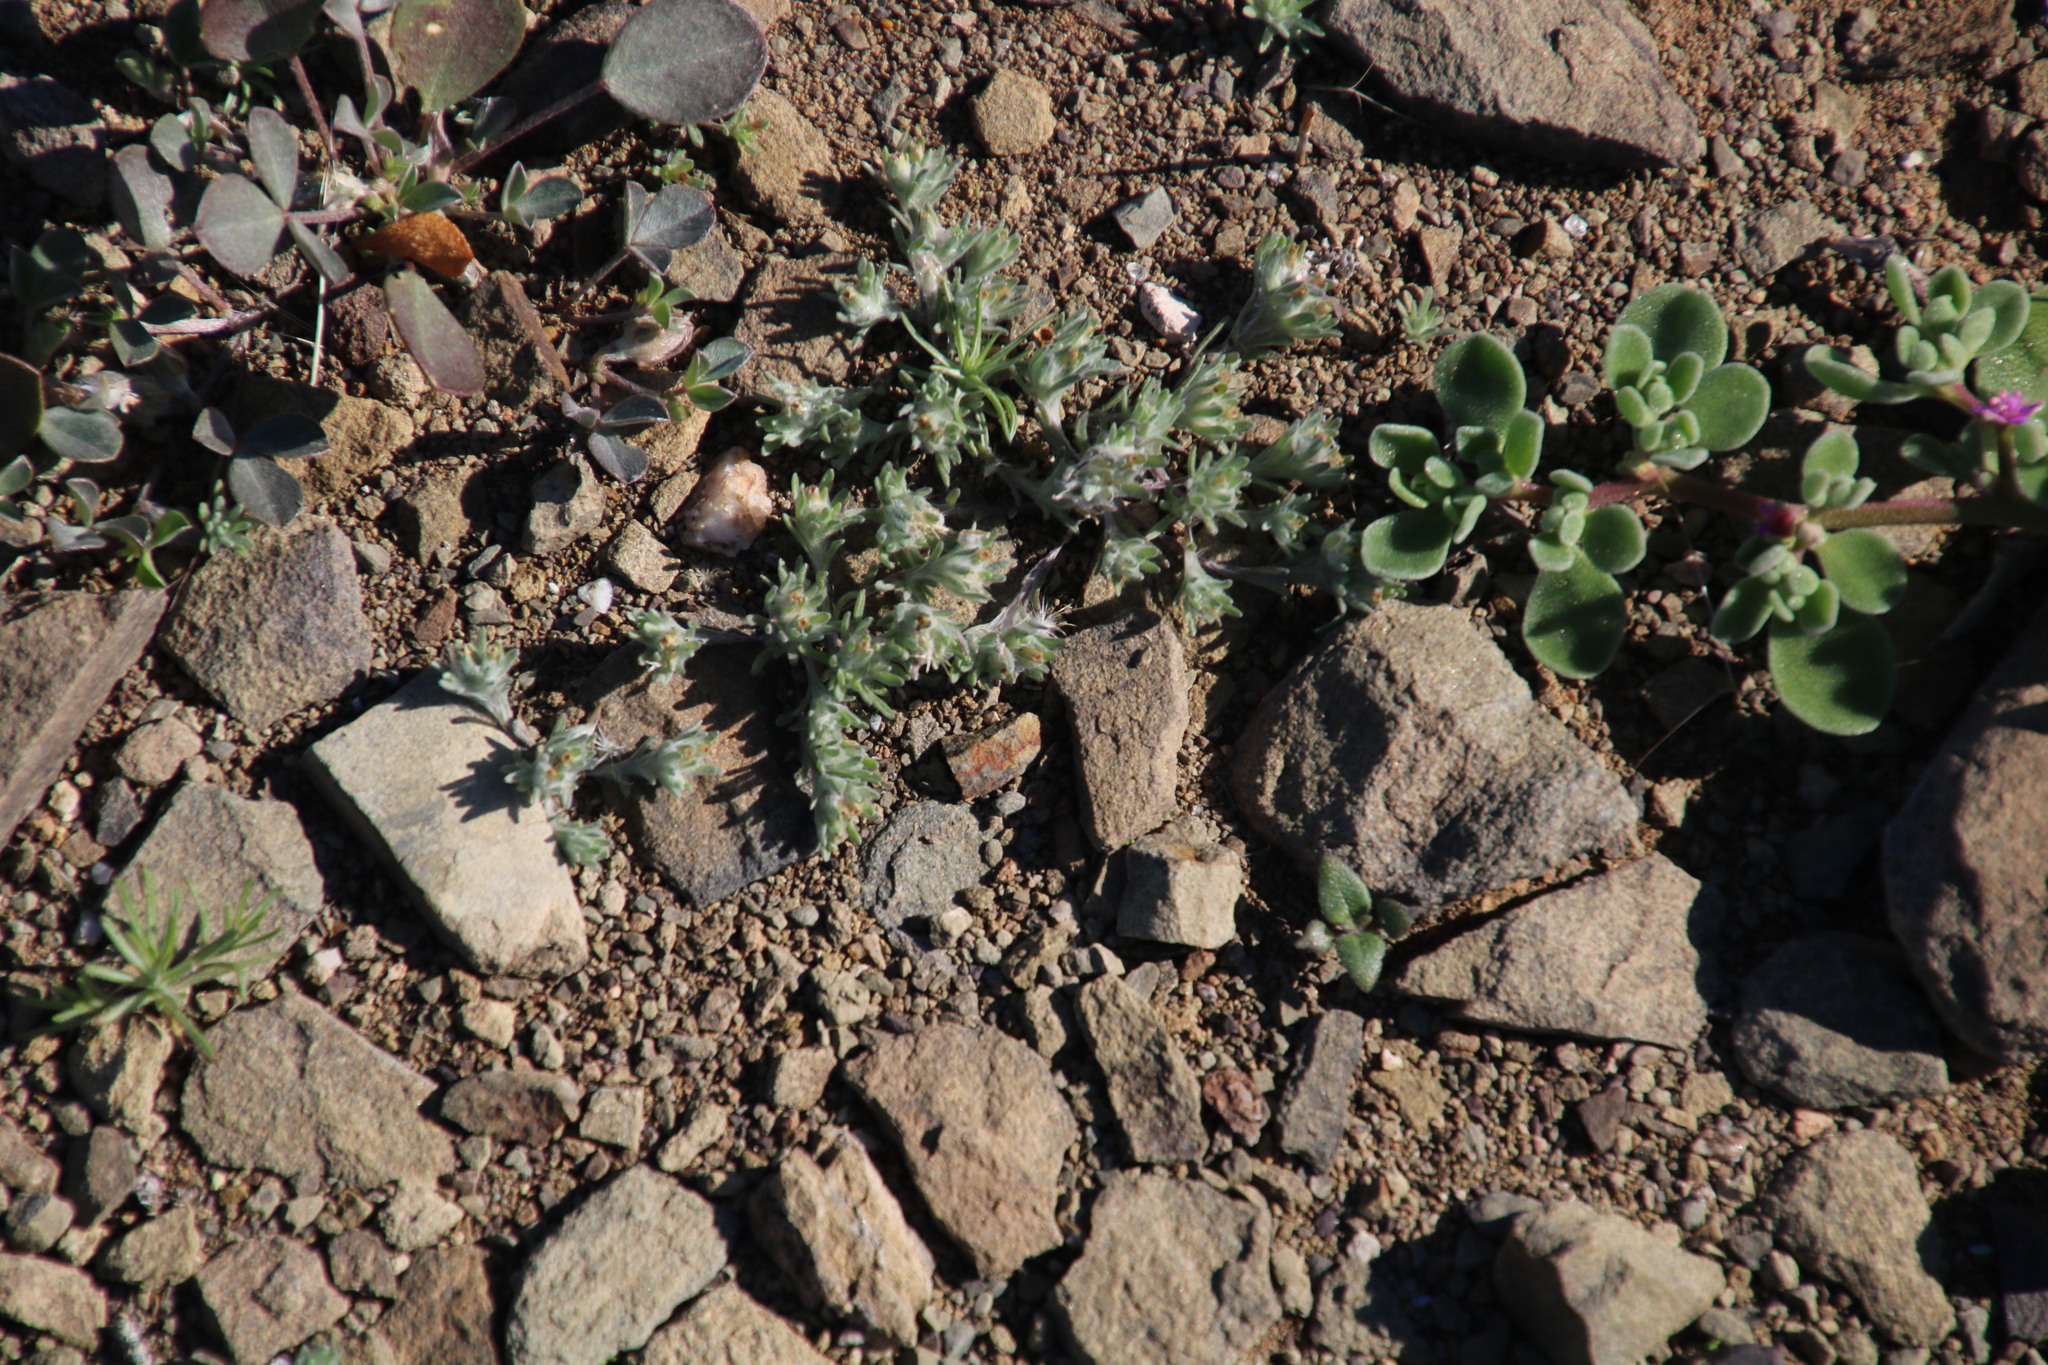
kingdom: Plantae
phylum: Tracheophyta
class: Magnoliopsida
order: Asterales
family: Asteraceae
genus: Lasiopogon
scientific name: Lasiopogon glomerulatus
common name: Green cat thorn
